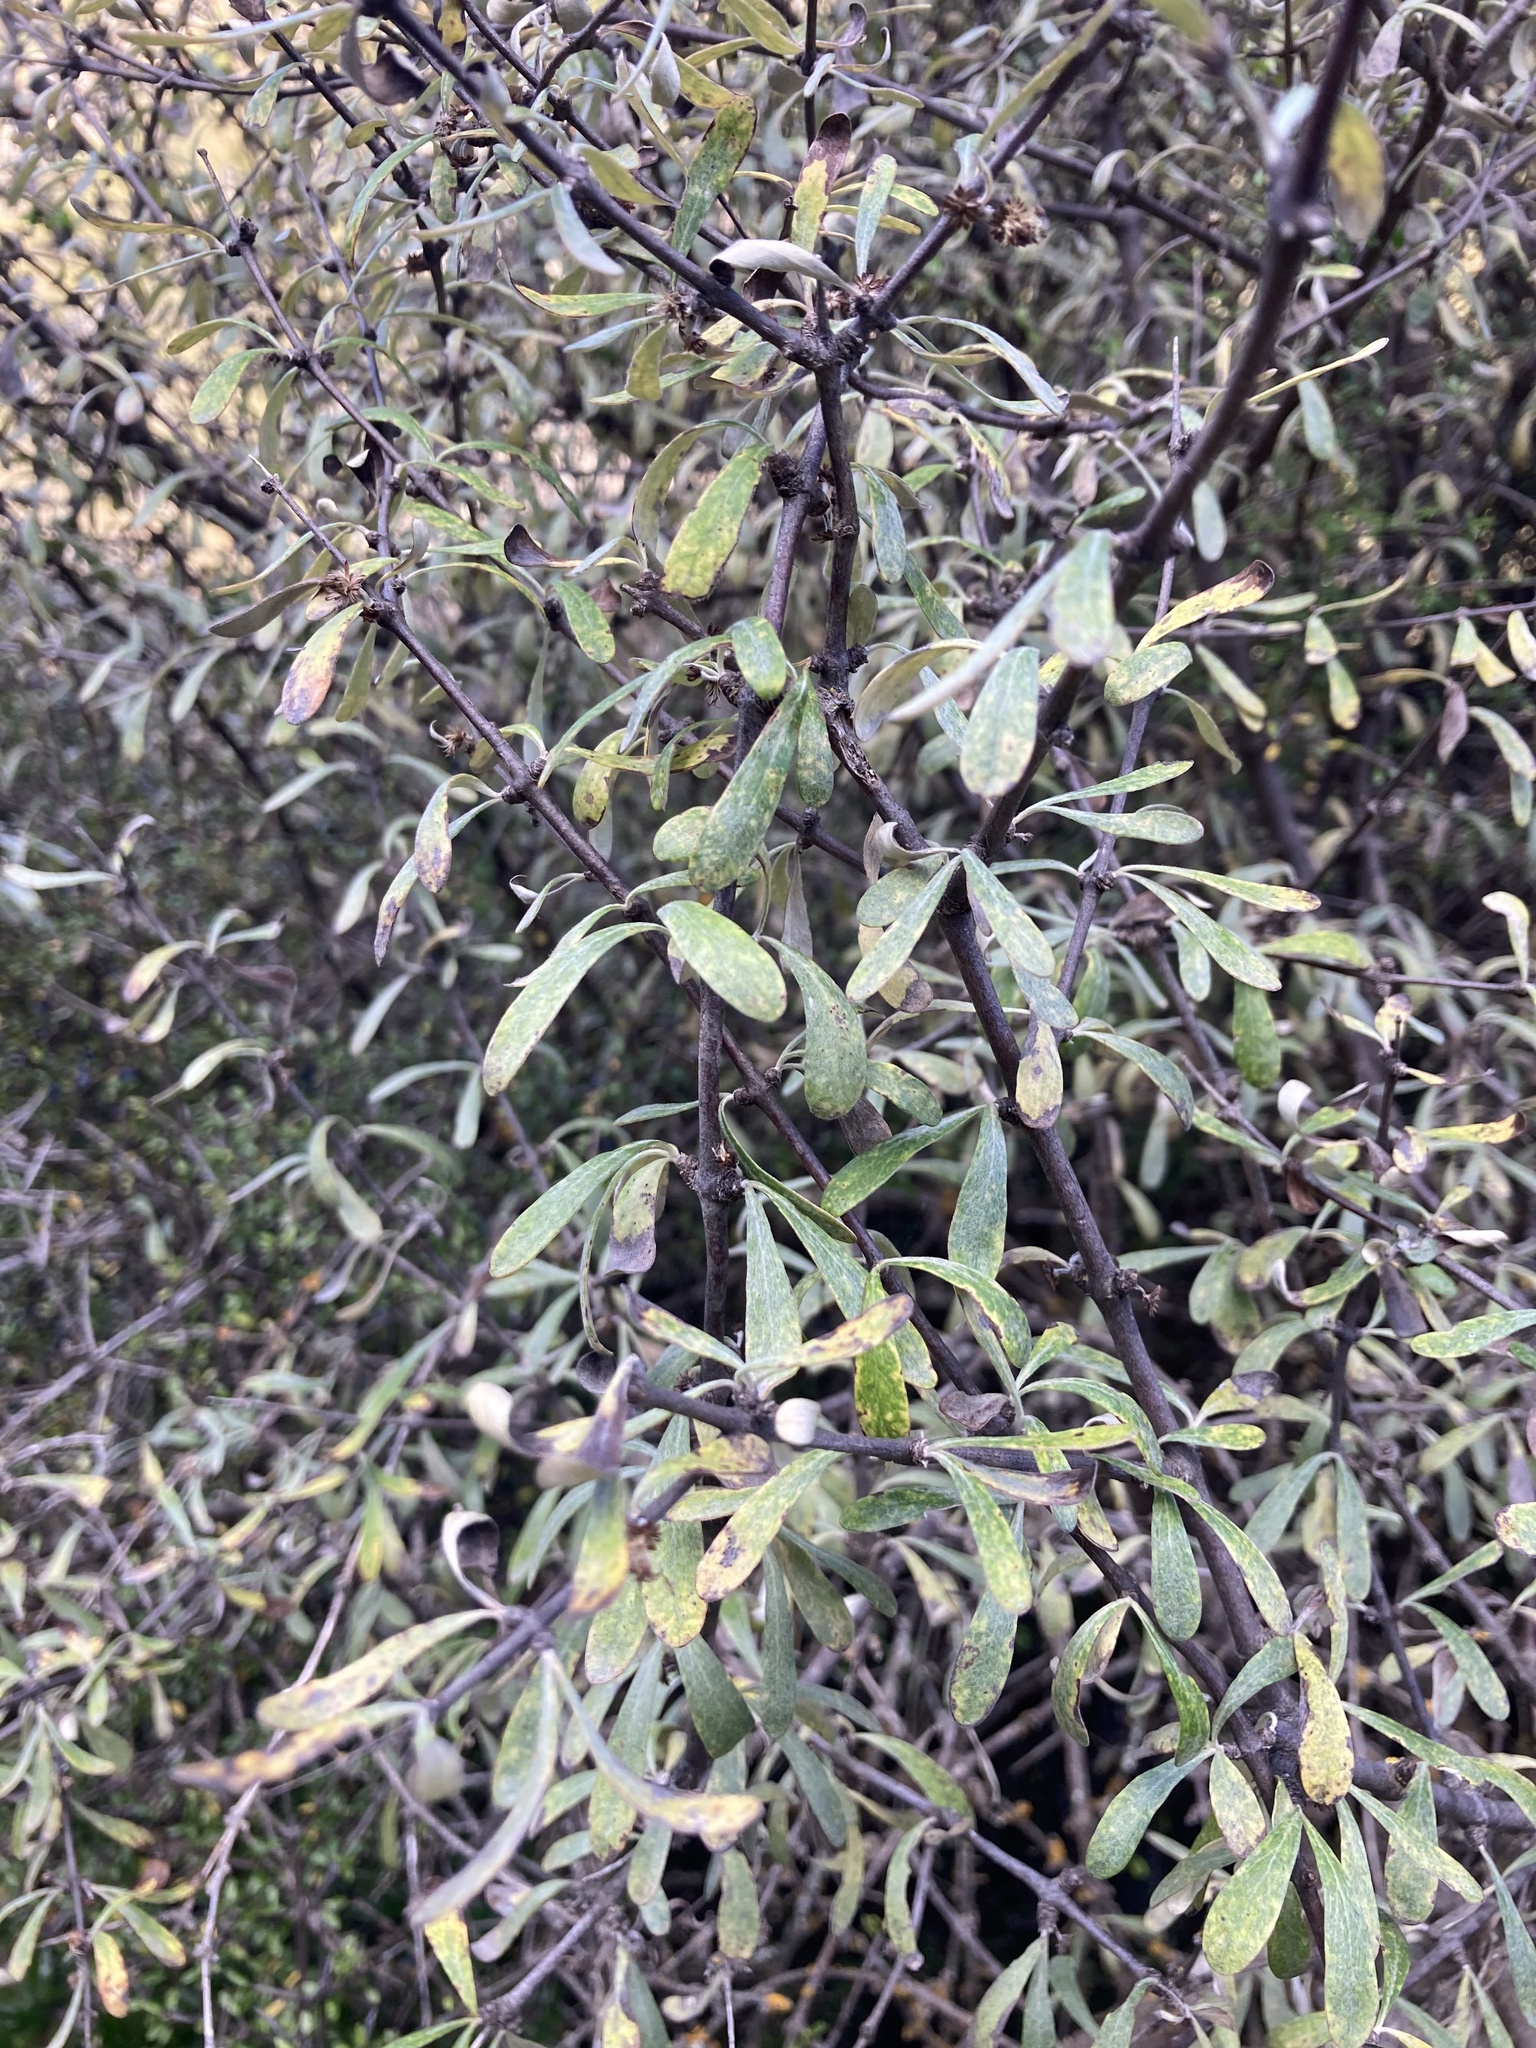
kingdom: Plantae
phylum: Tracheophyta
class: Magnoliopsida
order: Asterales
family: Asteraceae
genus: Olearia
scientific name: Olearia odorata
